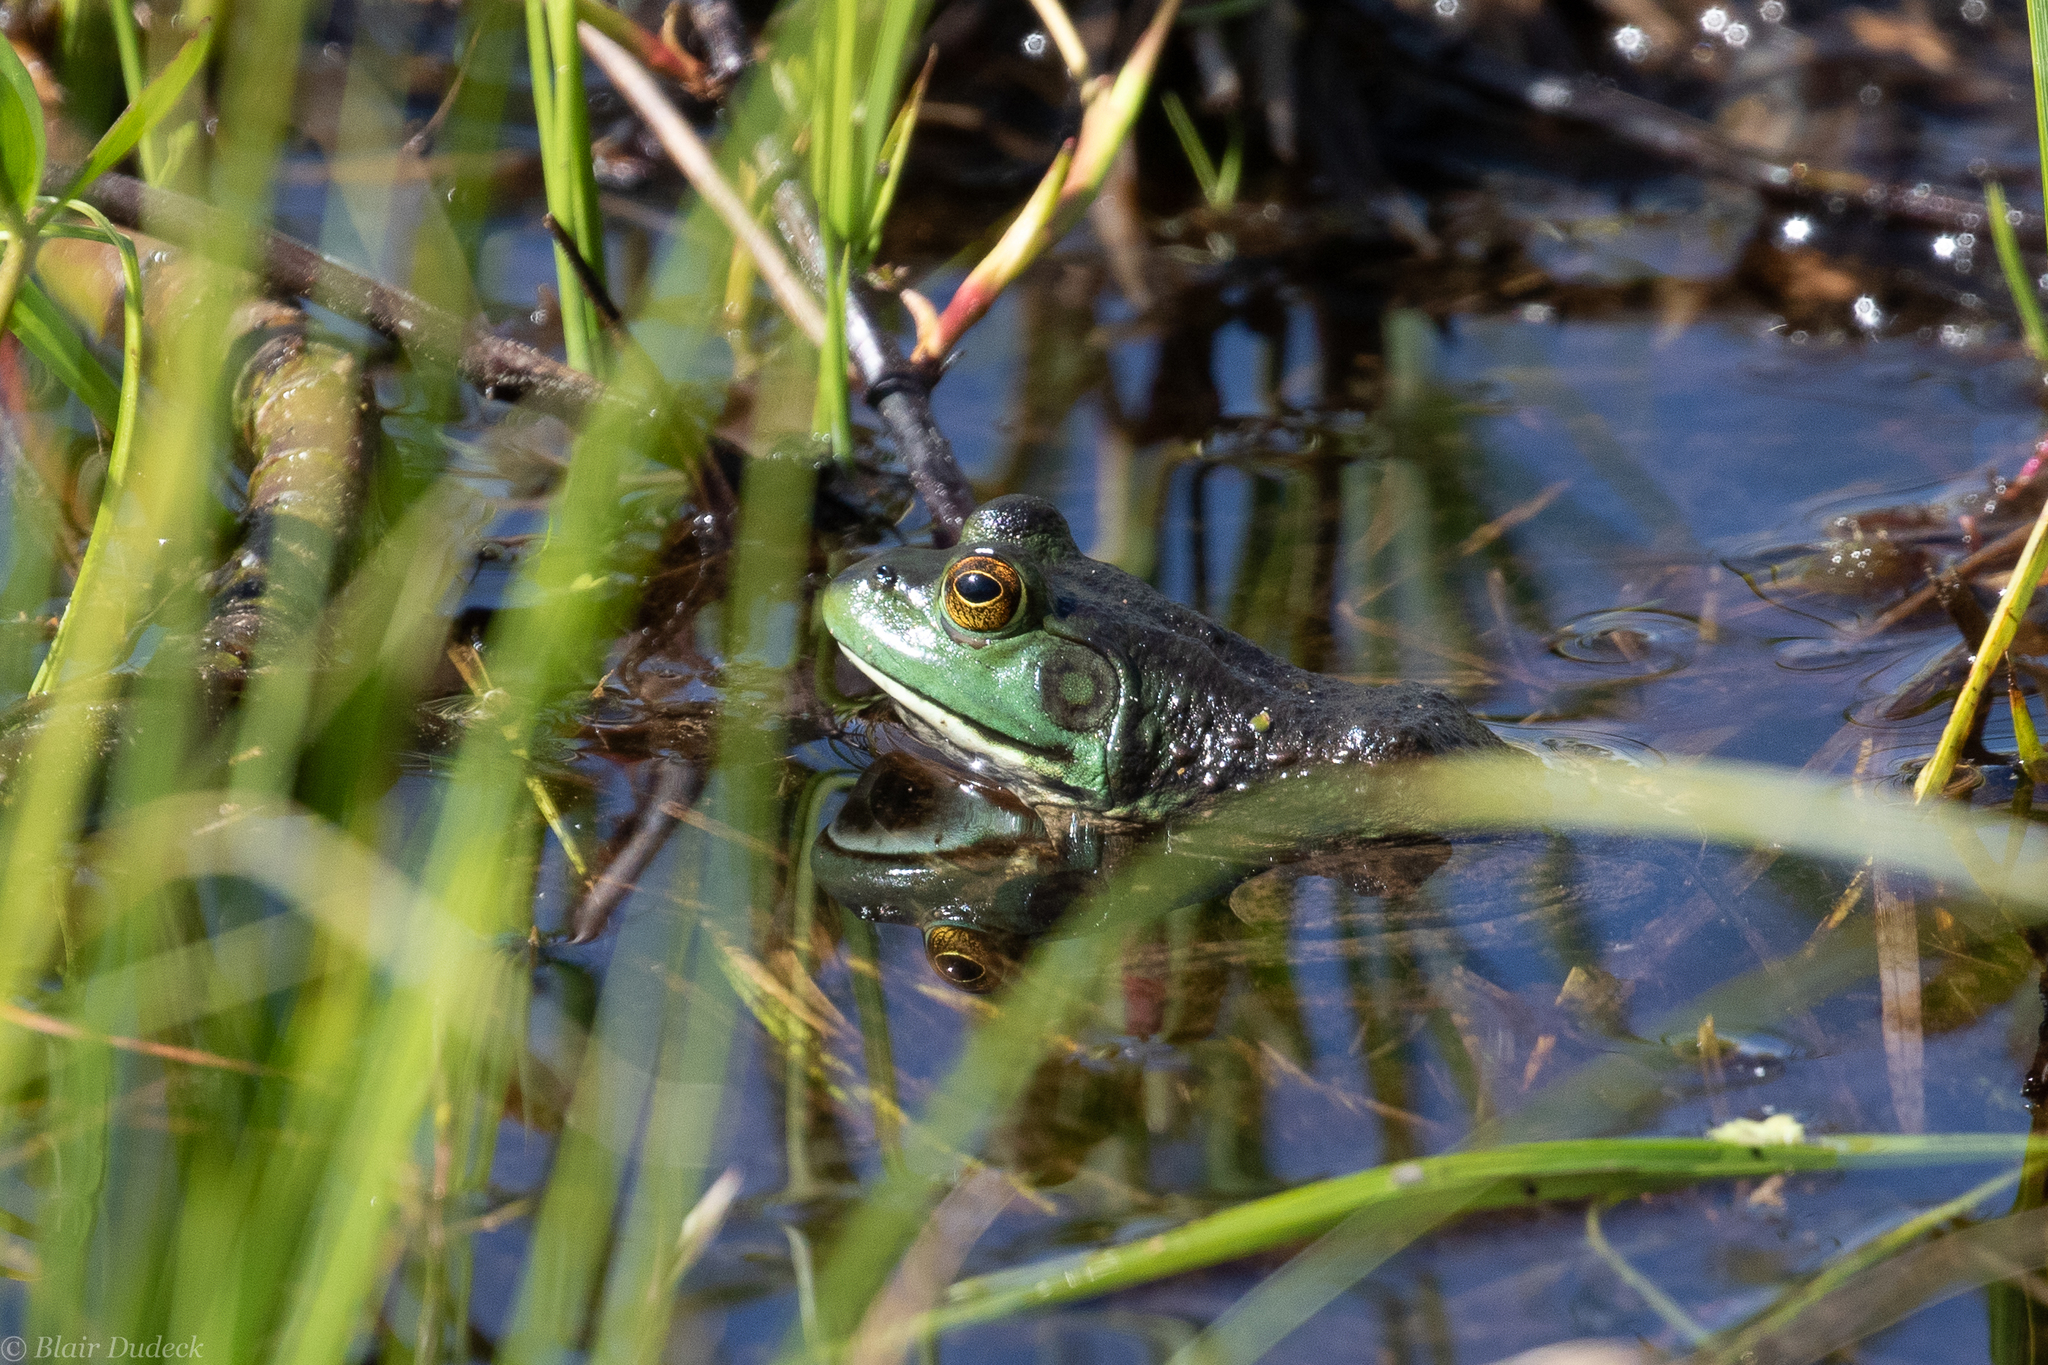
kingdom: Animalia
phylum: Chordata
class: Amphibia
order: Anura
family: Ranidae
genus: Lithobates
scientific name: Lithobates catesbeianus
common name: American bullfrog
